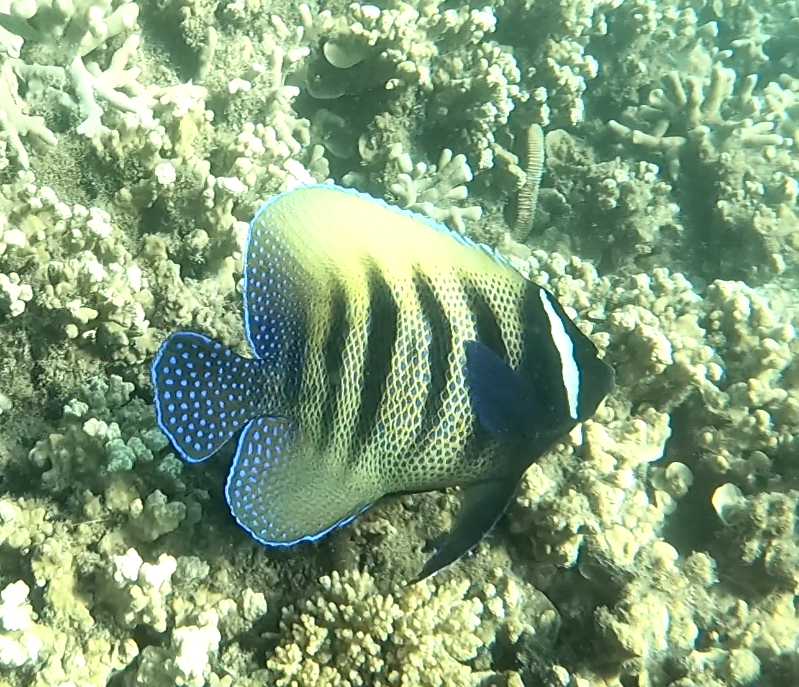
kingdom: Animalia
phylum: Chordata
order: Perciformes
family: Pomacanthidae
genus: Pomacanthus
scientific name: Pomacanthus sexstriatus
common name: Six-banded angelfish
